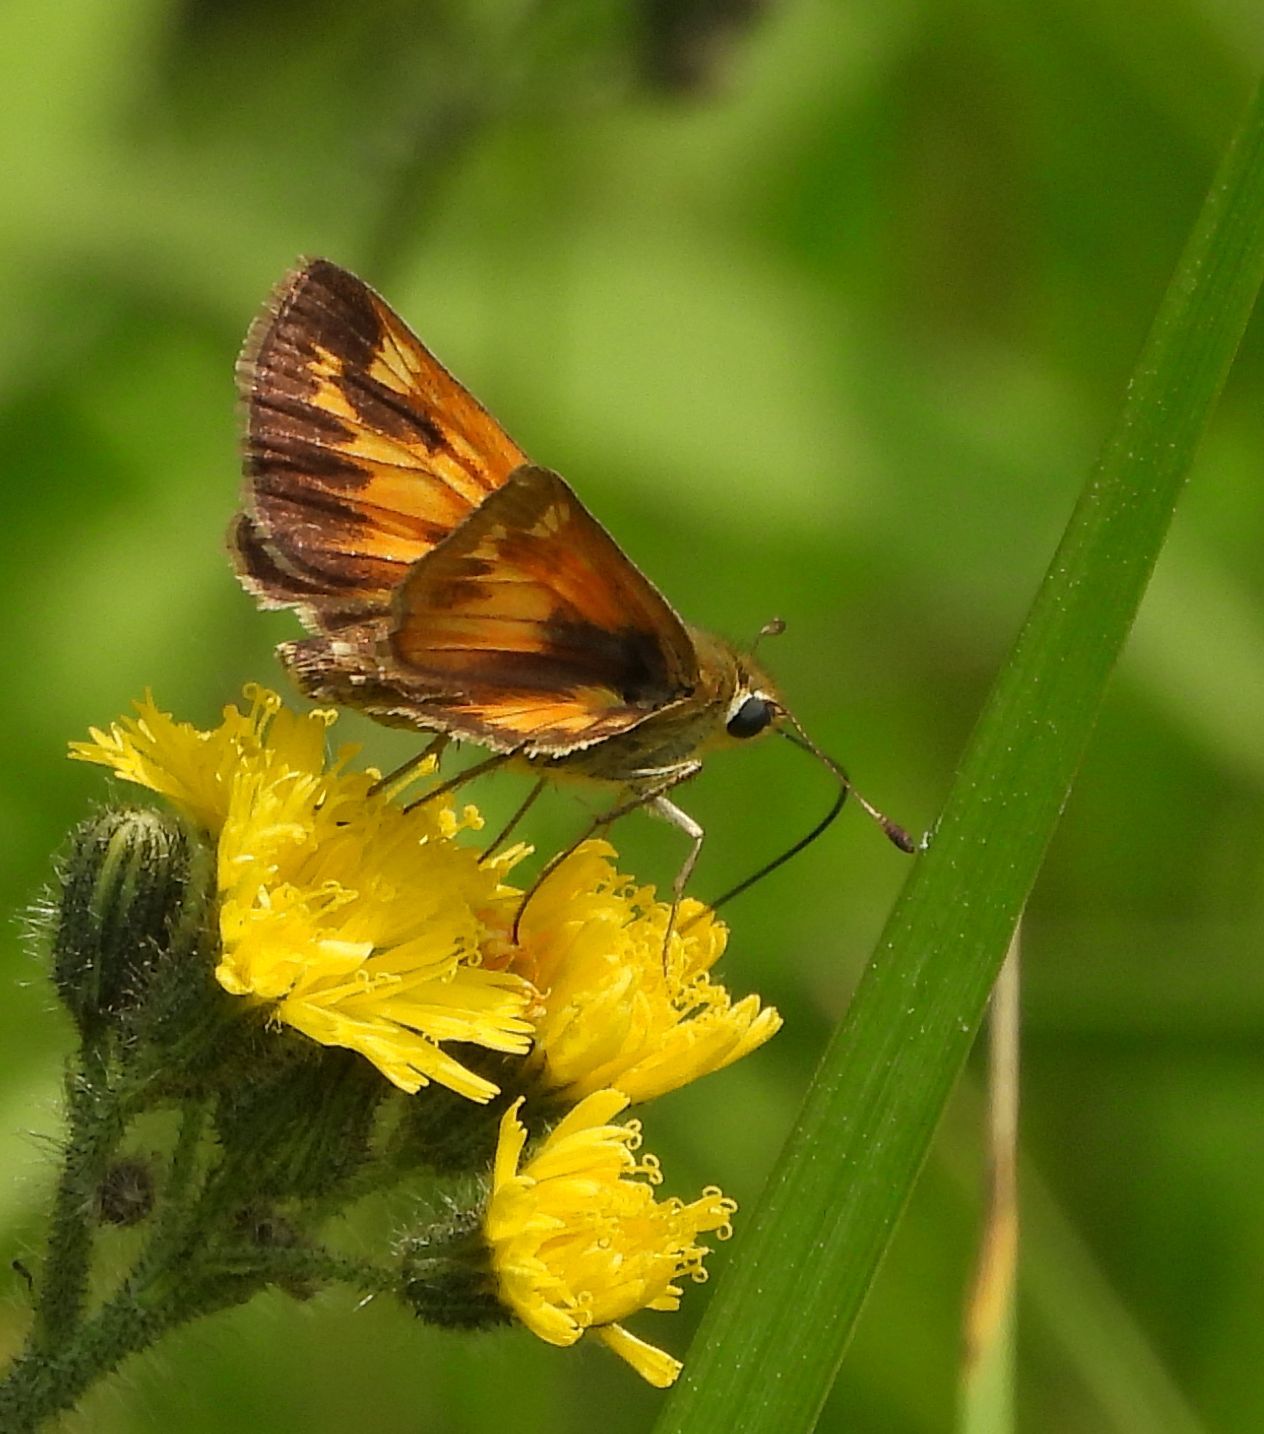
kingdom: Animalia
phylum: Arthropoda
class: Insecta
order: Lepidoptera
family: Hesperiidae
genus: Lon
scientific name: Lon hobomok
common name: Hobomok skipper
